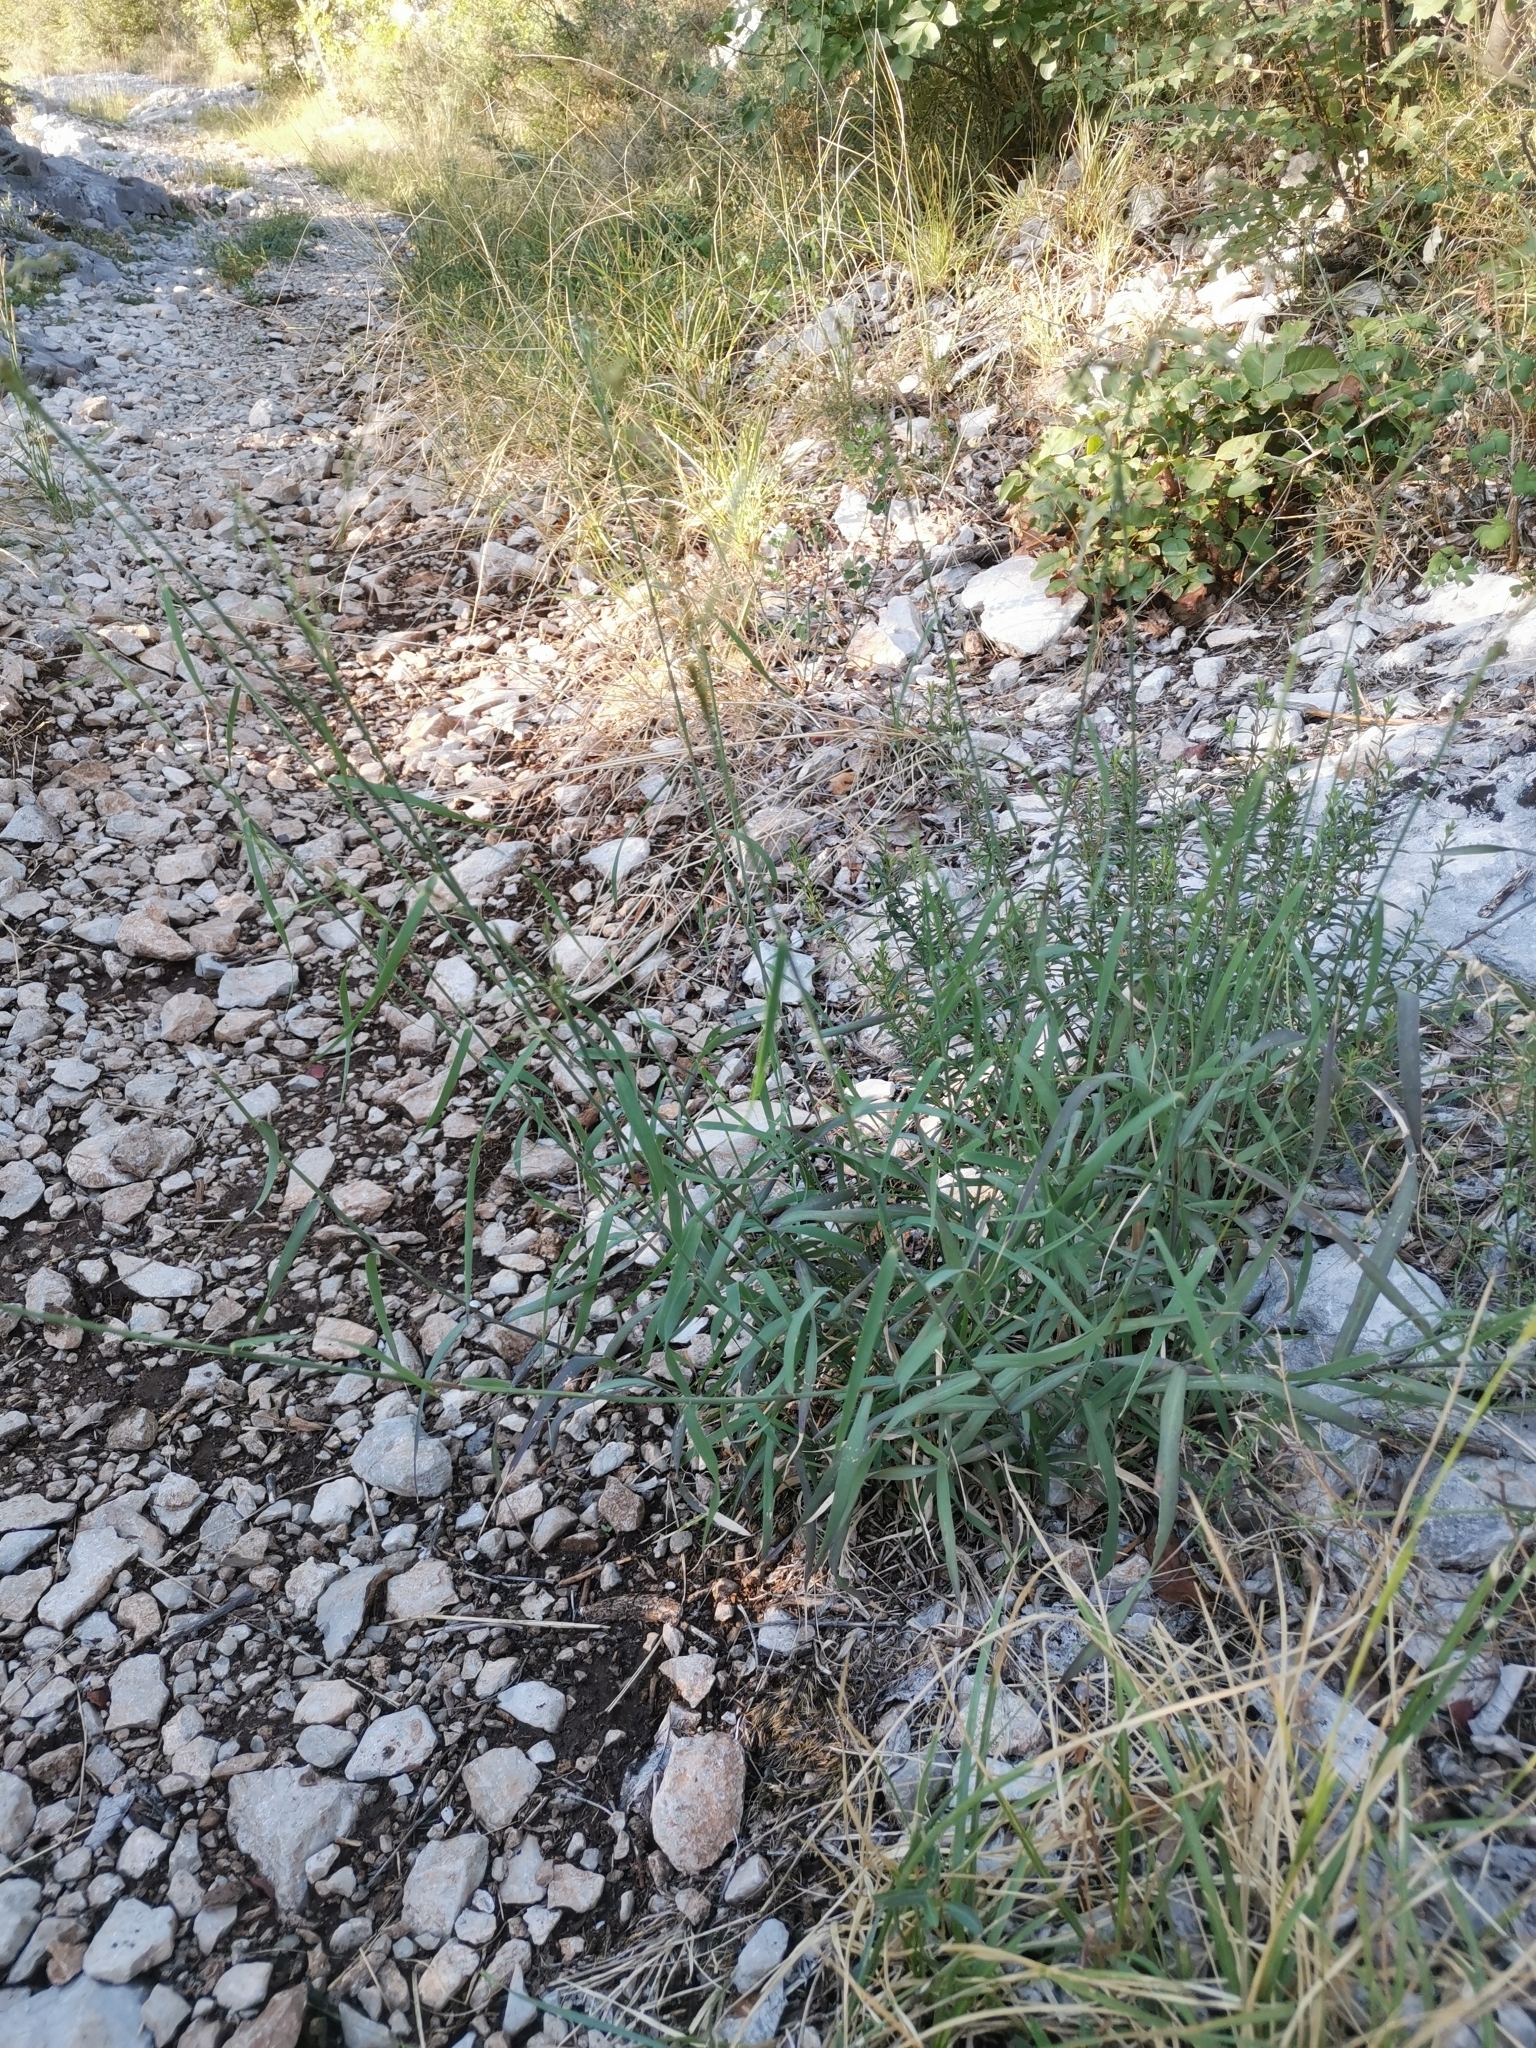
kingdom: Plantae
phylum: Tracheophyta
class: Liliopsida
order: Poales
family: Poaceae
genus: Cleistogenes
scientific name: Cleistogenes serotina
